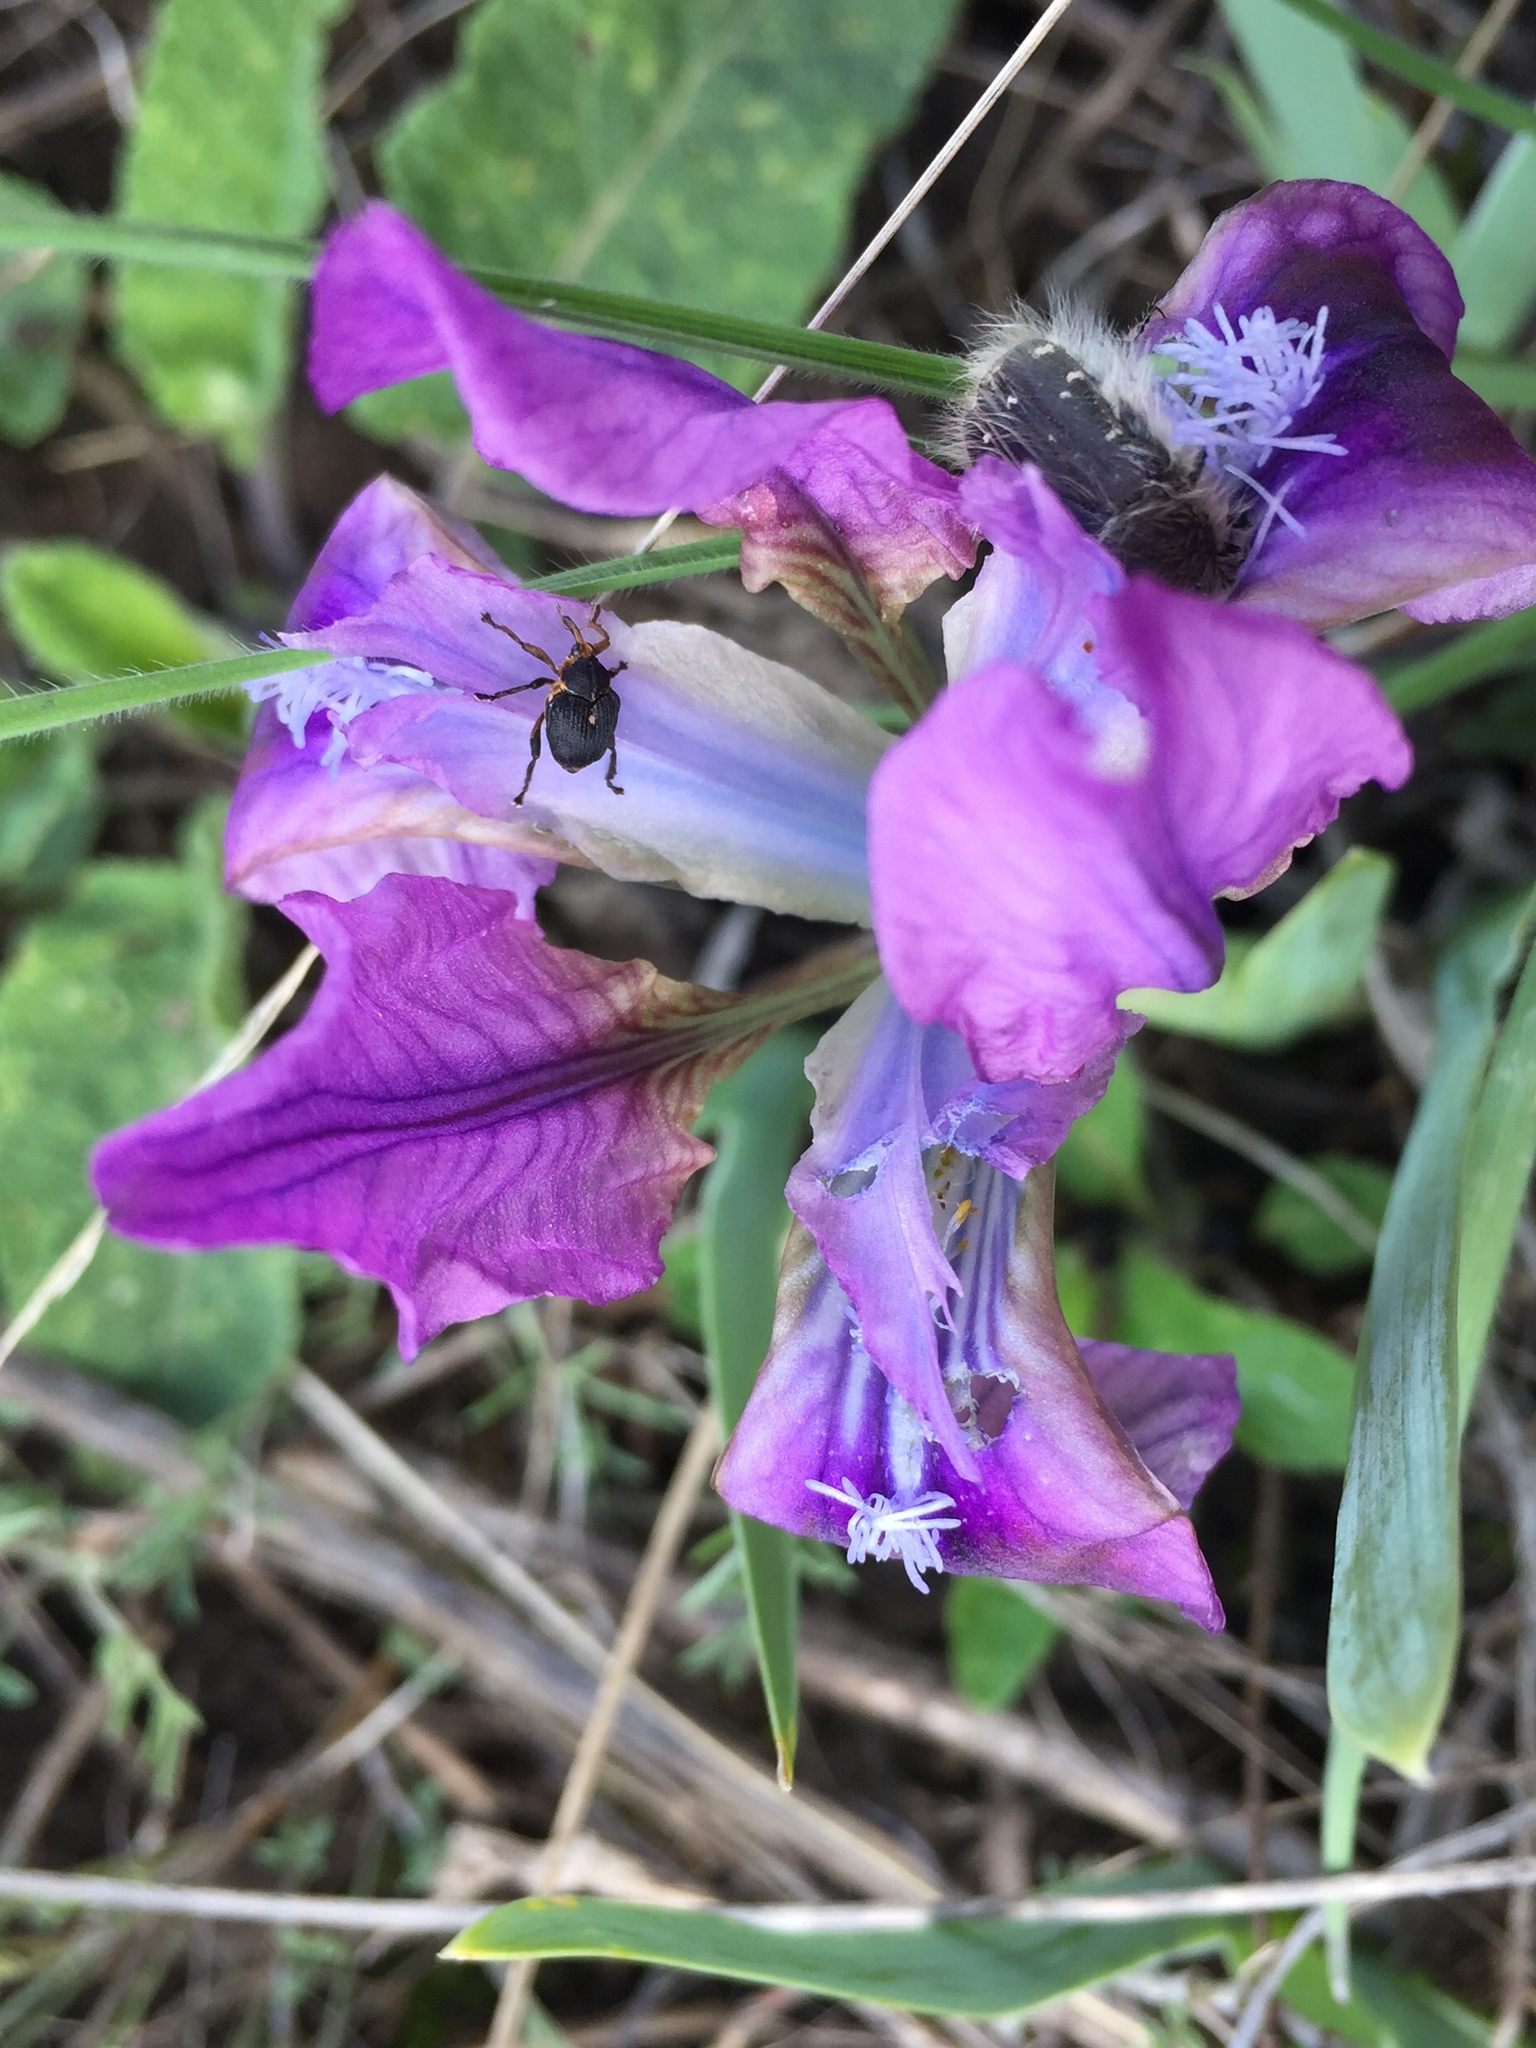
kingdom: Plantae
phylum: Tracheophyta
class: Liliopsida
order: Asparagales
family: Iridaceae
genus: Iris
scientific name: Iris pumila
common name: Dwarf iris
